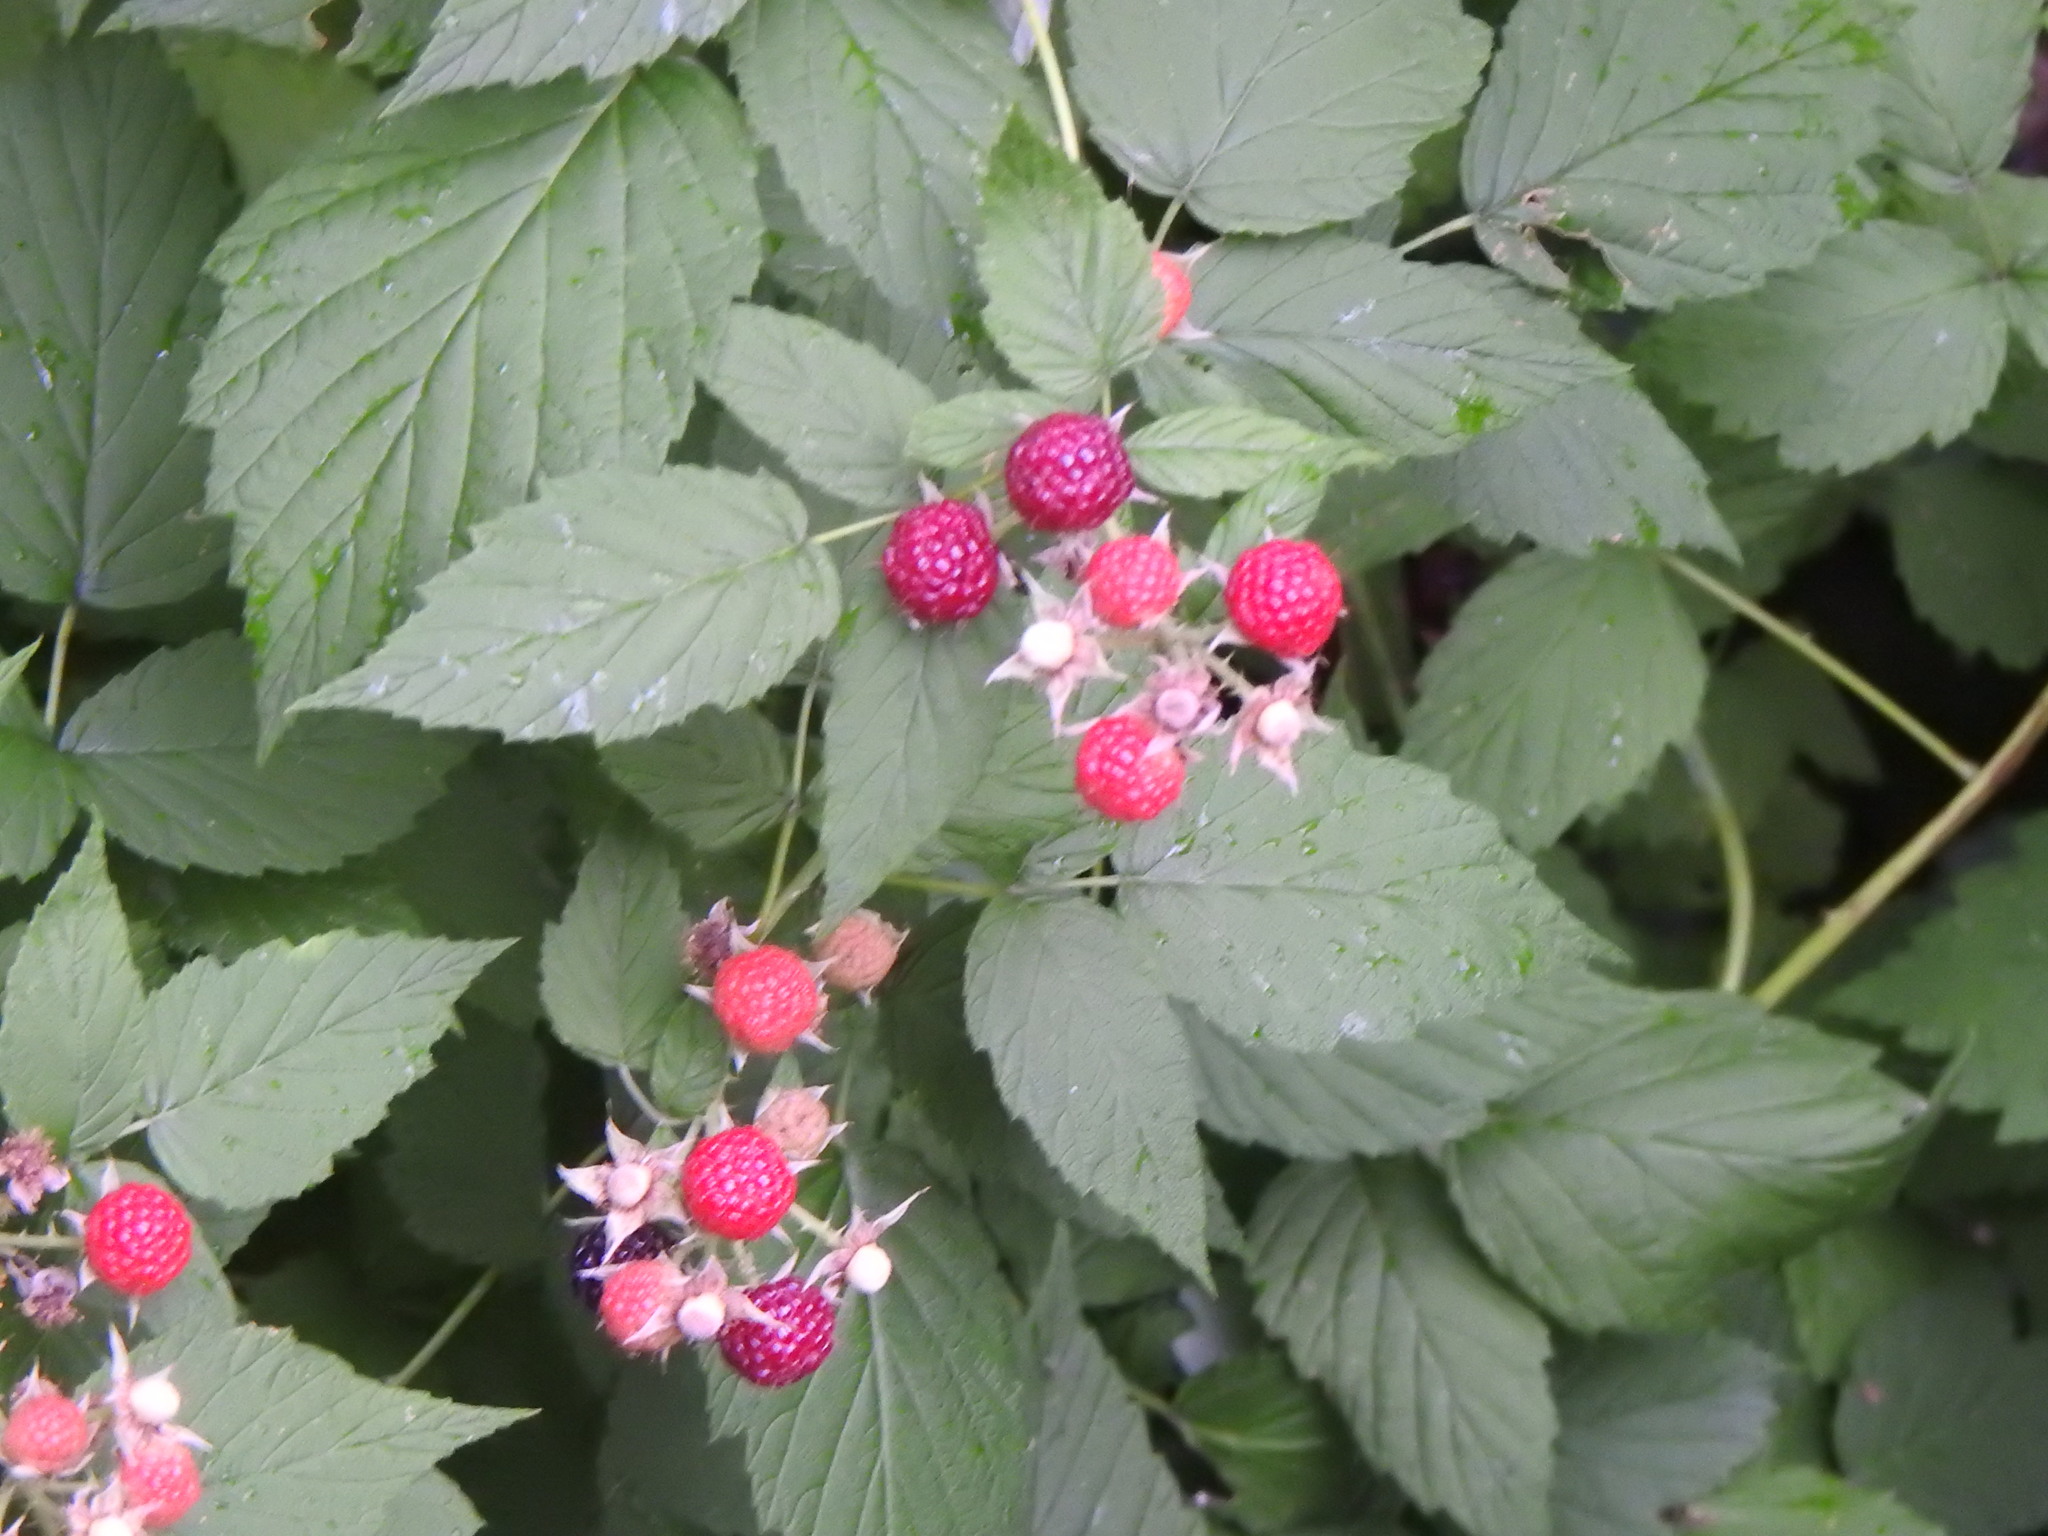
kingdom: Plantae
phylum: Tracheophyta
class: Magnoliopsida
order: Rosales
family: Rosaceae
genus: Rubus
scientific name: Rubus occidentalis
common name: Black raspberry
